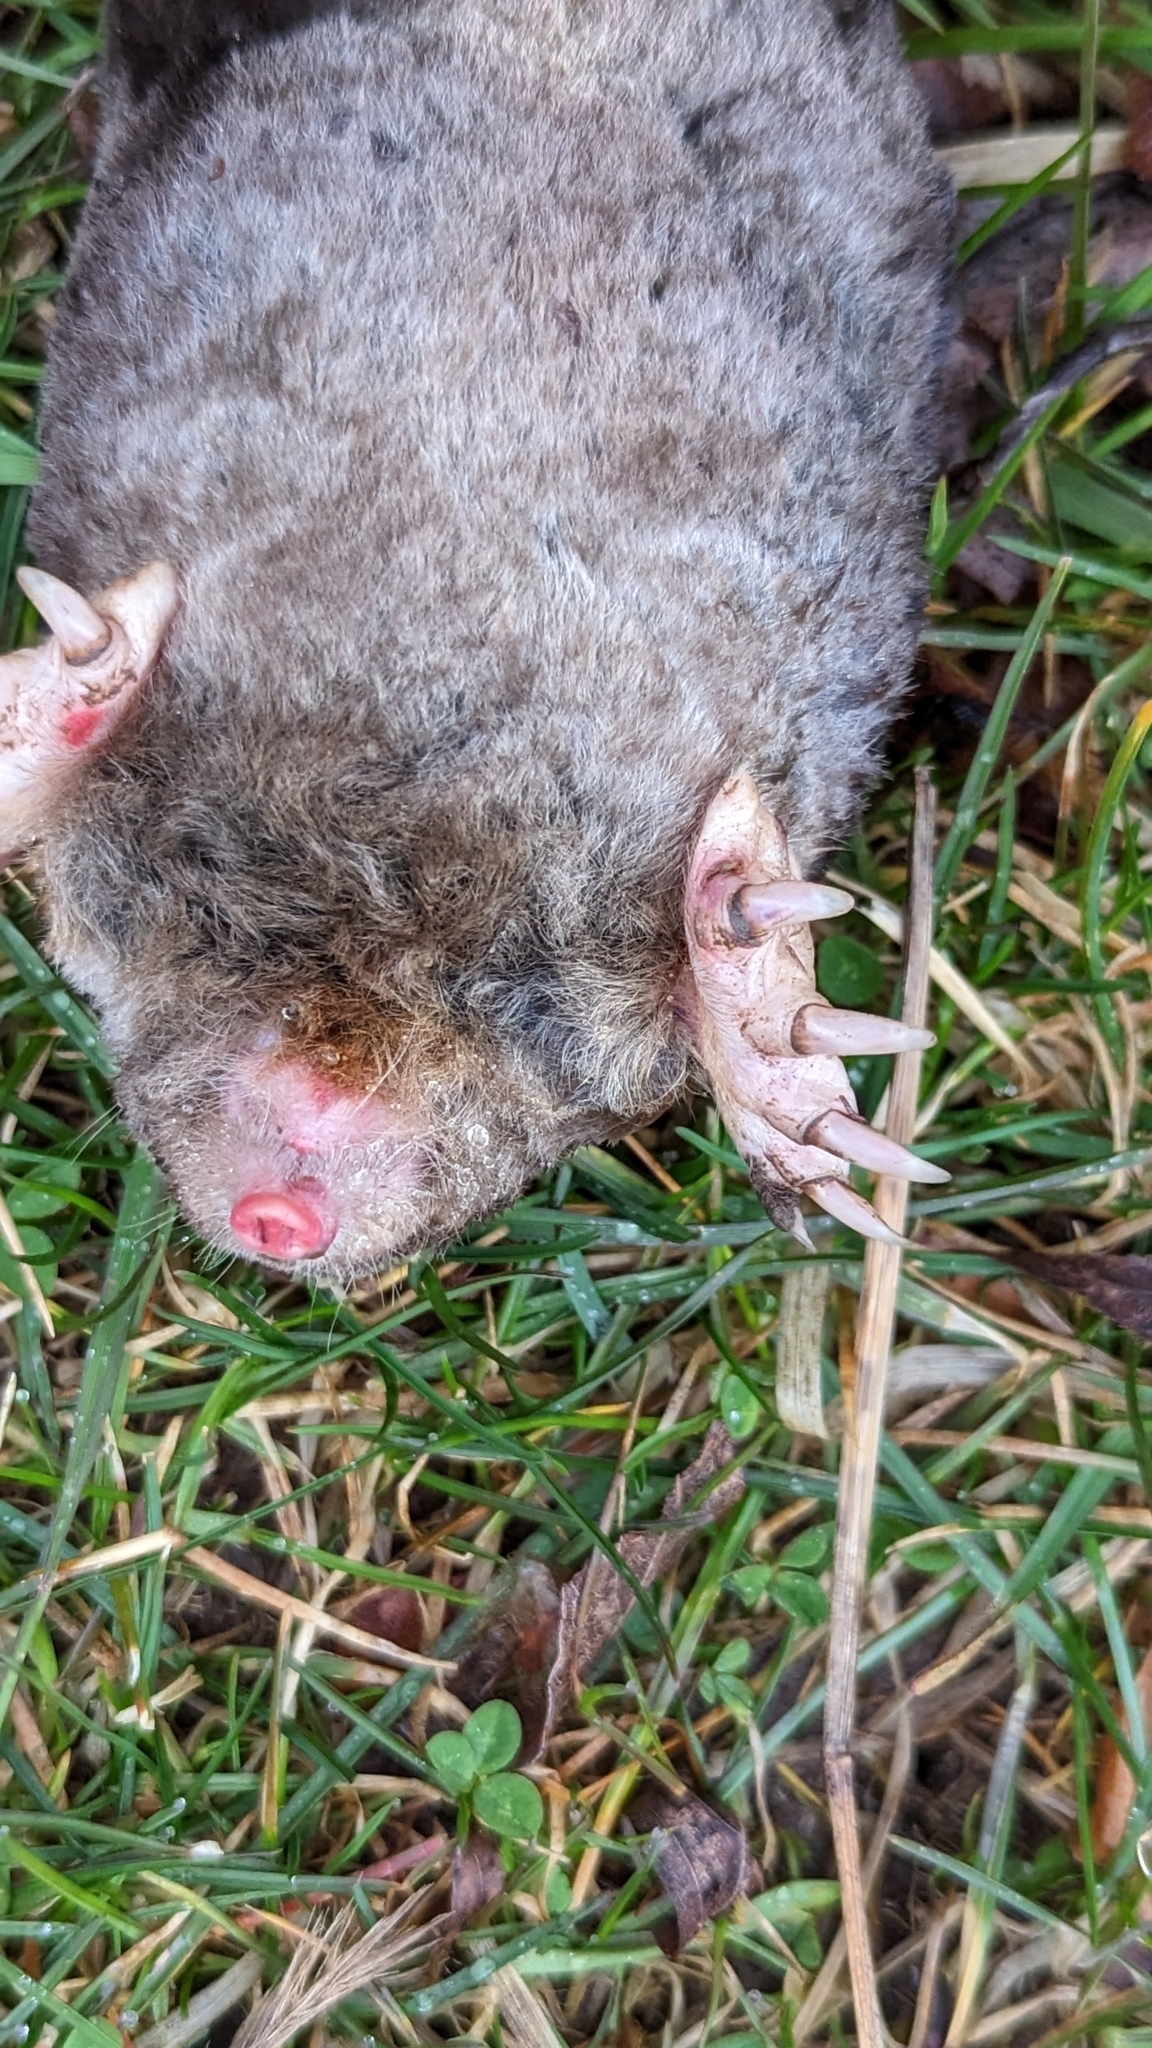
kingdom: Animalia
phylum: Chordata
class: Mammalia
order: Soricomorpha
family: Talpidae
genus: Scalopus
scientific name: Scalopus aquaticus
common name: Eastern mole
